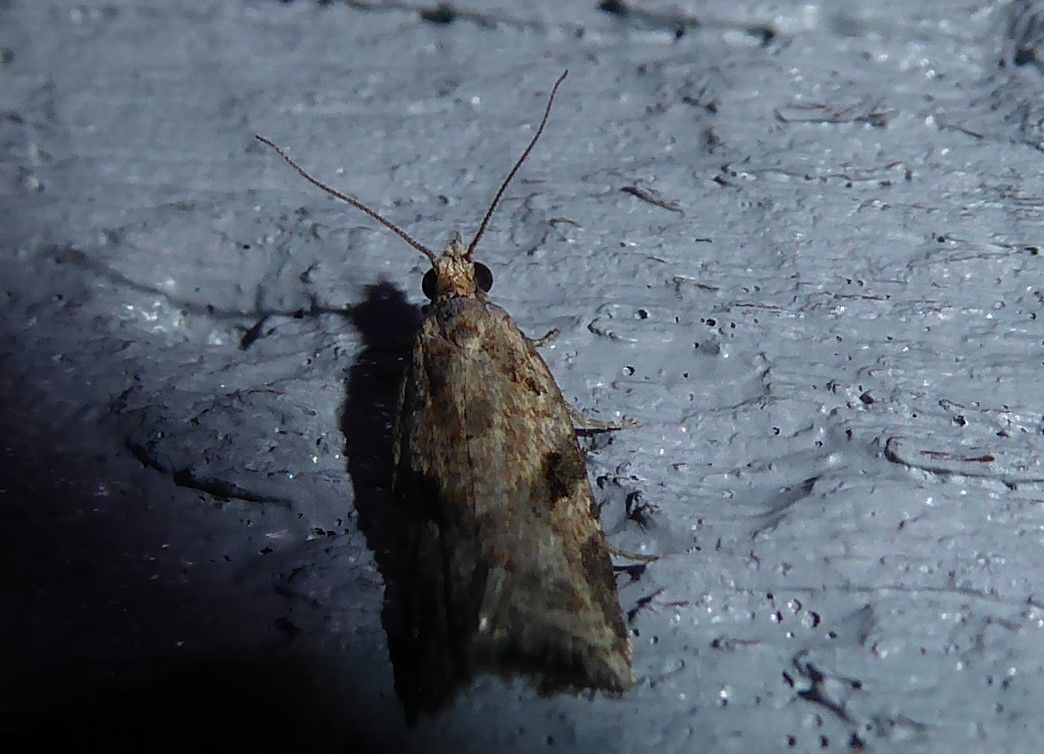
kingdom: Animalia
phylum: Arthropoda
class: Insecta
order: Lepidoptera
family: Tortricidae
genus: Capua
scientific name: Capua semiferana
